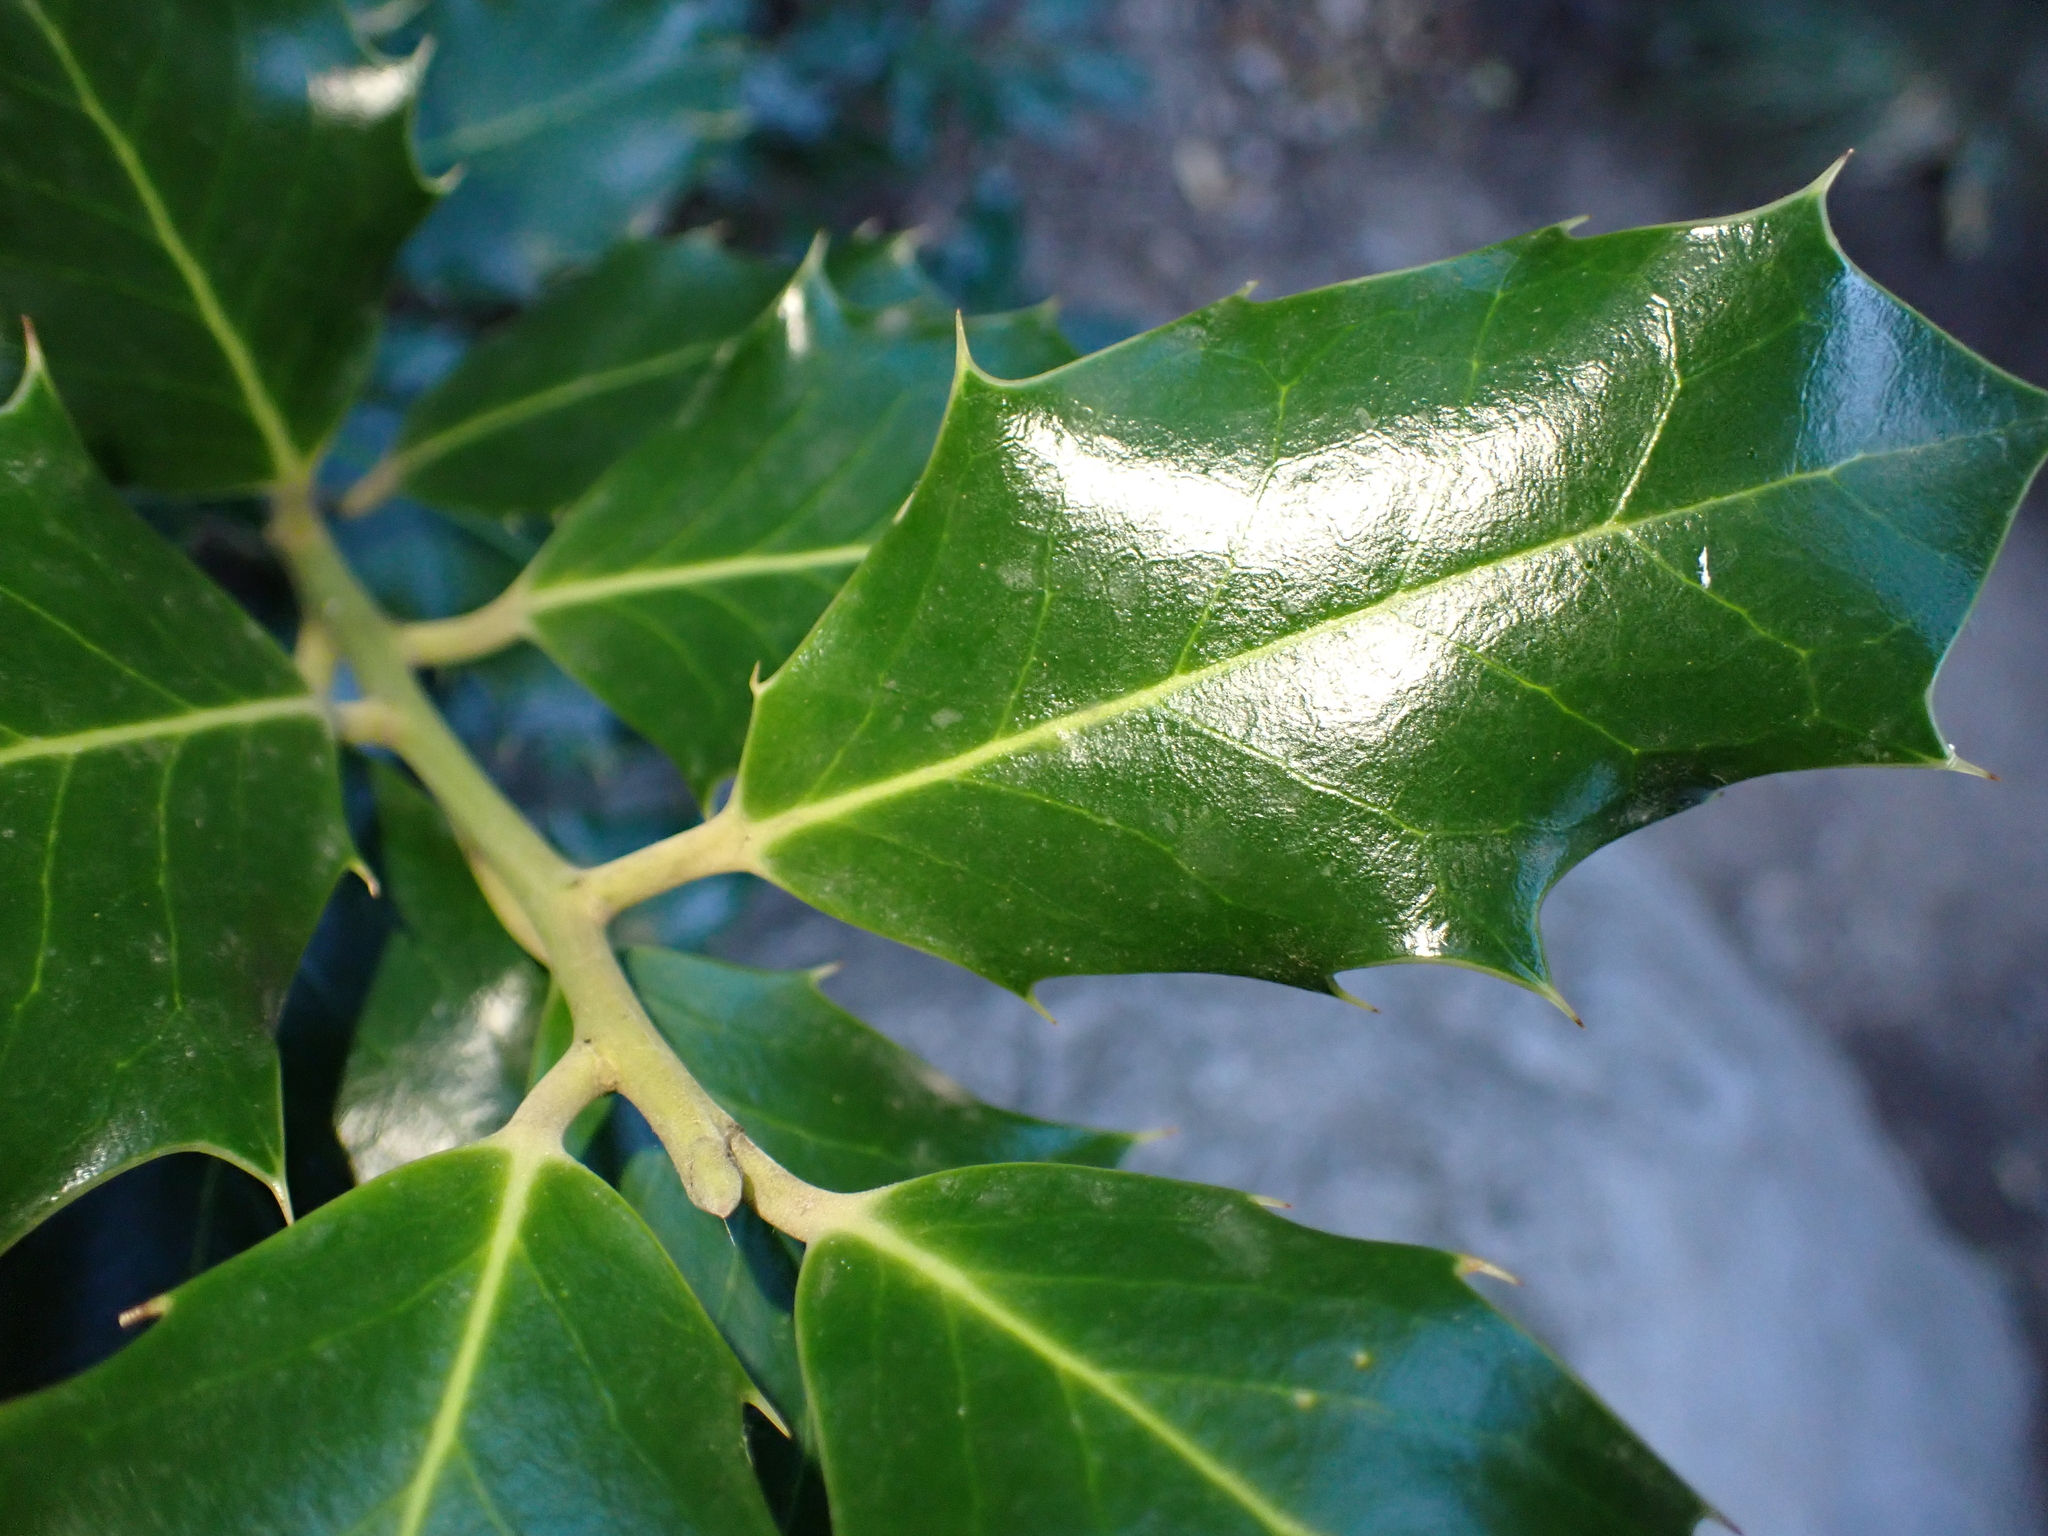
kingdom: Plantae
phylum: Tracheophyta
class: Magnoliopsida
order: Aquifoliales
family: Aquifoliaceae
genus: Ilex
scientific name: Ilex aquifolium
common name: English holly
